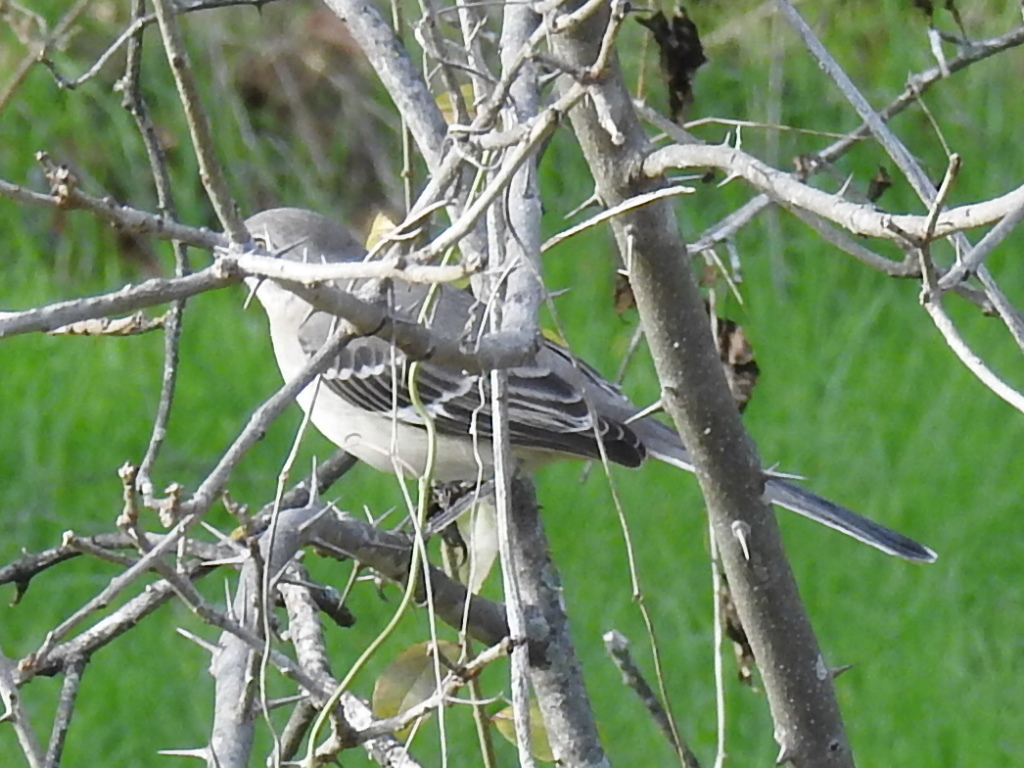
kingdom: Animalia
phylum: Chordata
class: Aves
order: Passeriformes
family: Mimidae
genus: Mimus
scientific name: Mimus polyglottos
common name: Northern mockingbird
